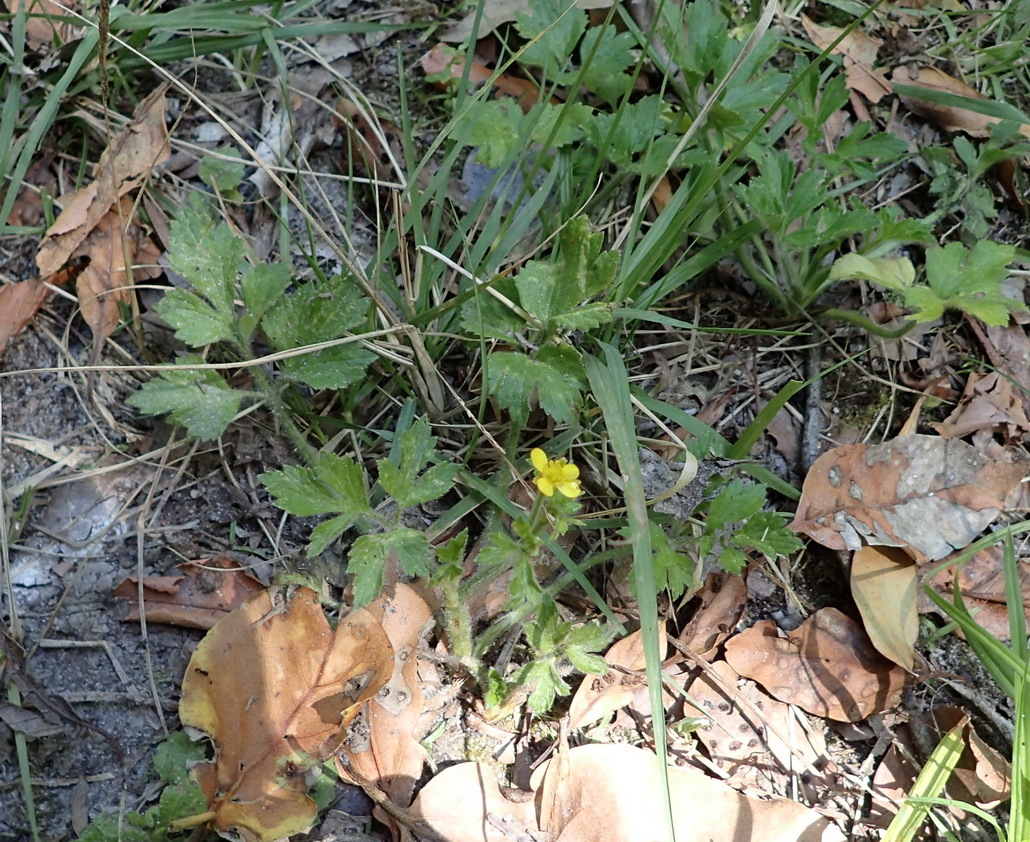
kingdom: Plantae
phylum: Tracheophyta
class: Magnoliopsida
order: Ranunculales
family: Ranunculaceae
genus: Ranunculus
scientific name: Ranunculus multifidus
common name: Wild buttercup
